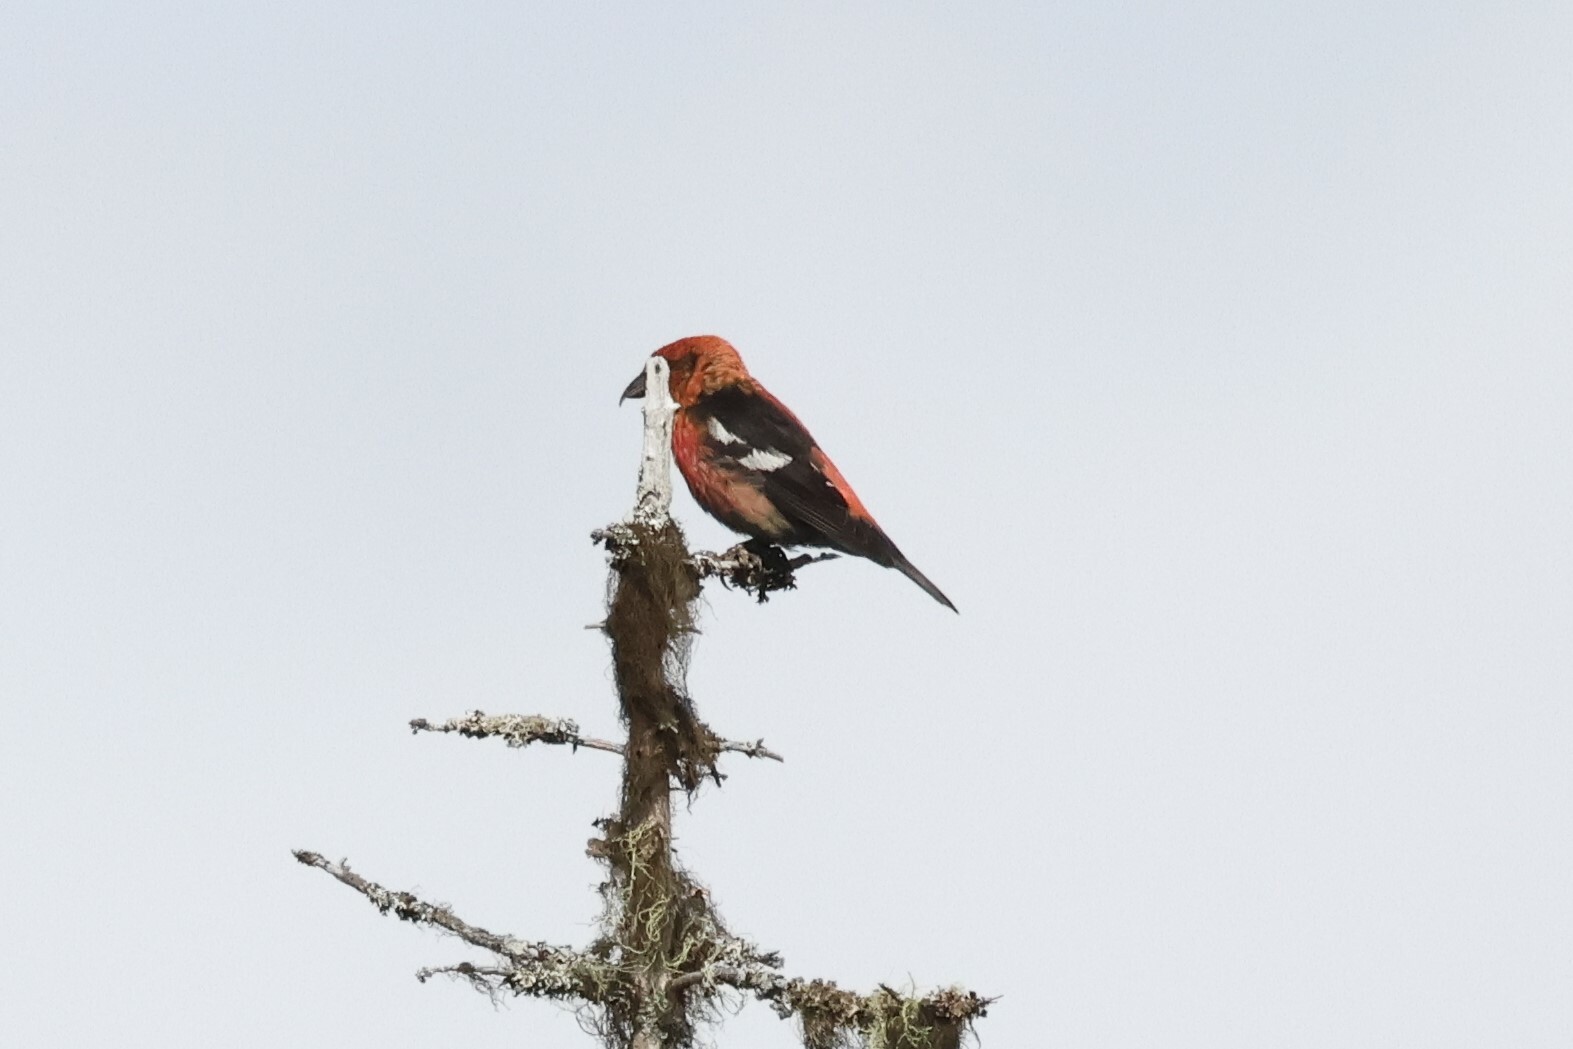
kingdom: Animalia
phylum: Chordata
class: Aves
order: Passeriformes
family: Fringillidae
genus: Loxia
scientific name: Loxia leucoptera
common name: Two-barred crossbill
